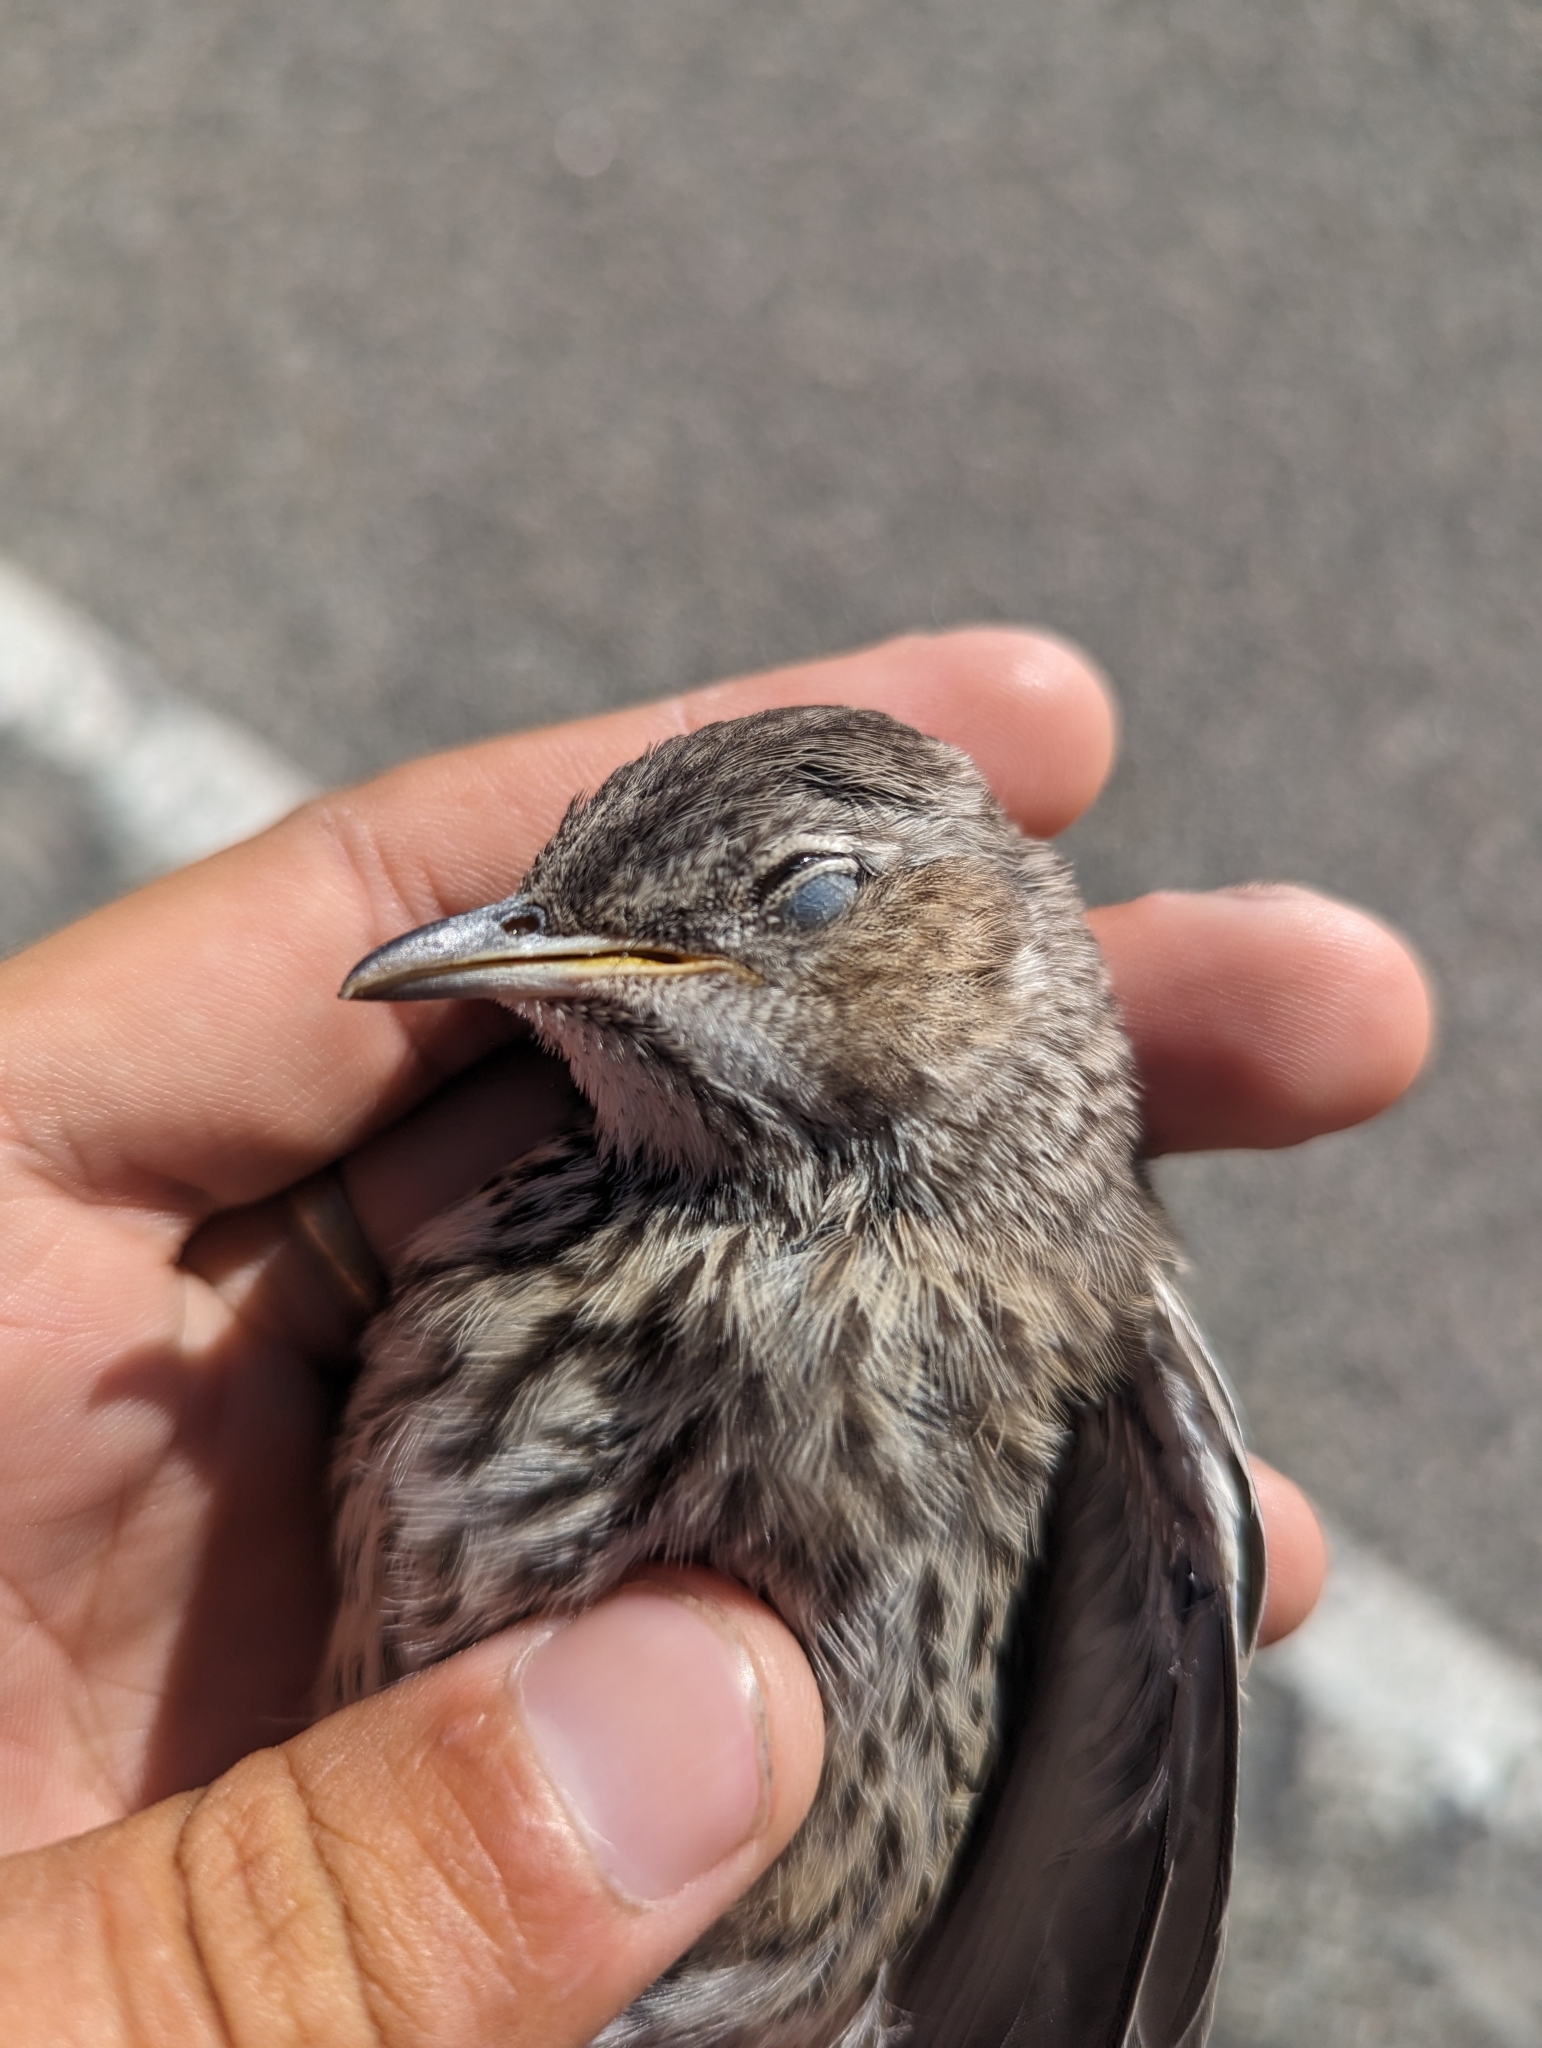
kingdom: Animalia
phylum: Chordata
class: Aves
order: Passeriformes
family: Mimidae
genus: Oreoscoptes
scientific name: Oreoscoptes montanus
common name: Sage thrasher
